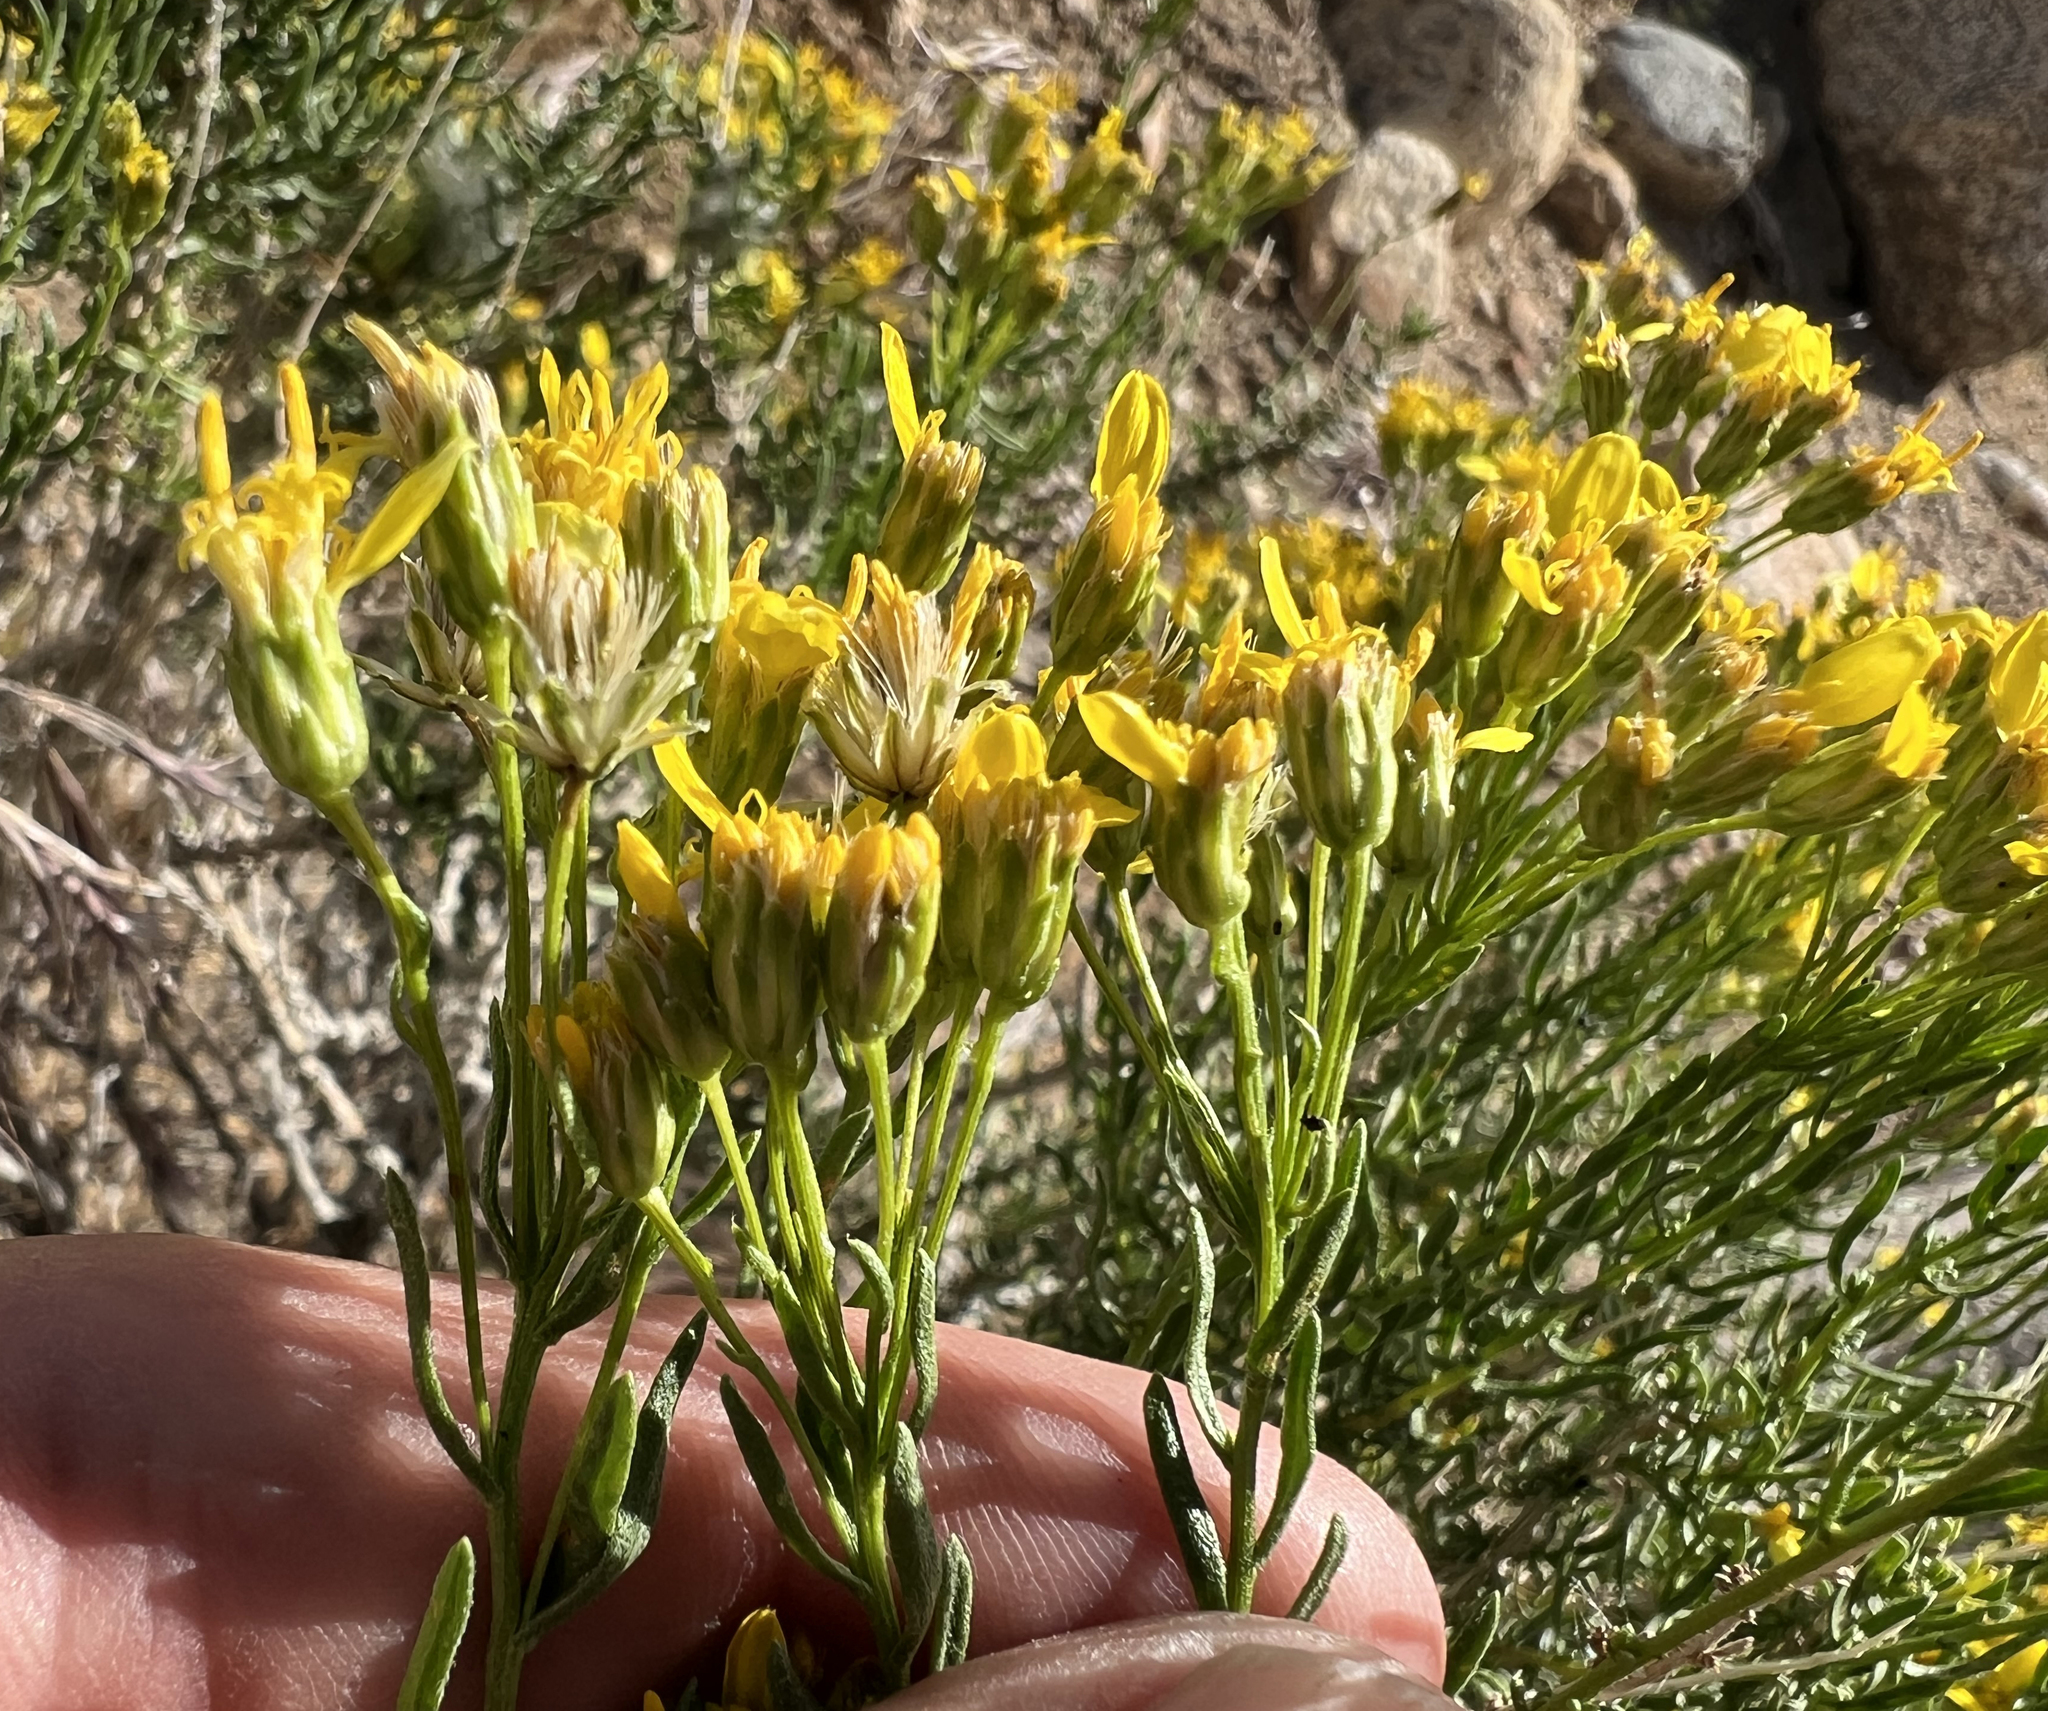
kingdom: Plantae
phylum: Tracheophyta
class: Magnoliopsida
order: Asterales
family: Asteraceae
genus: Ericameria
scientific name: Ericameria cooperi
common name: Cooper's goldenbush
